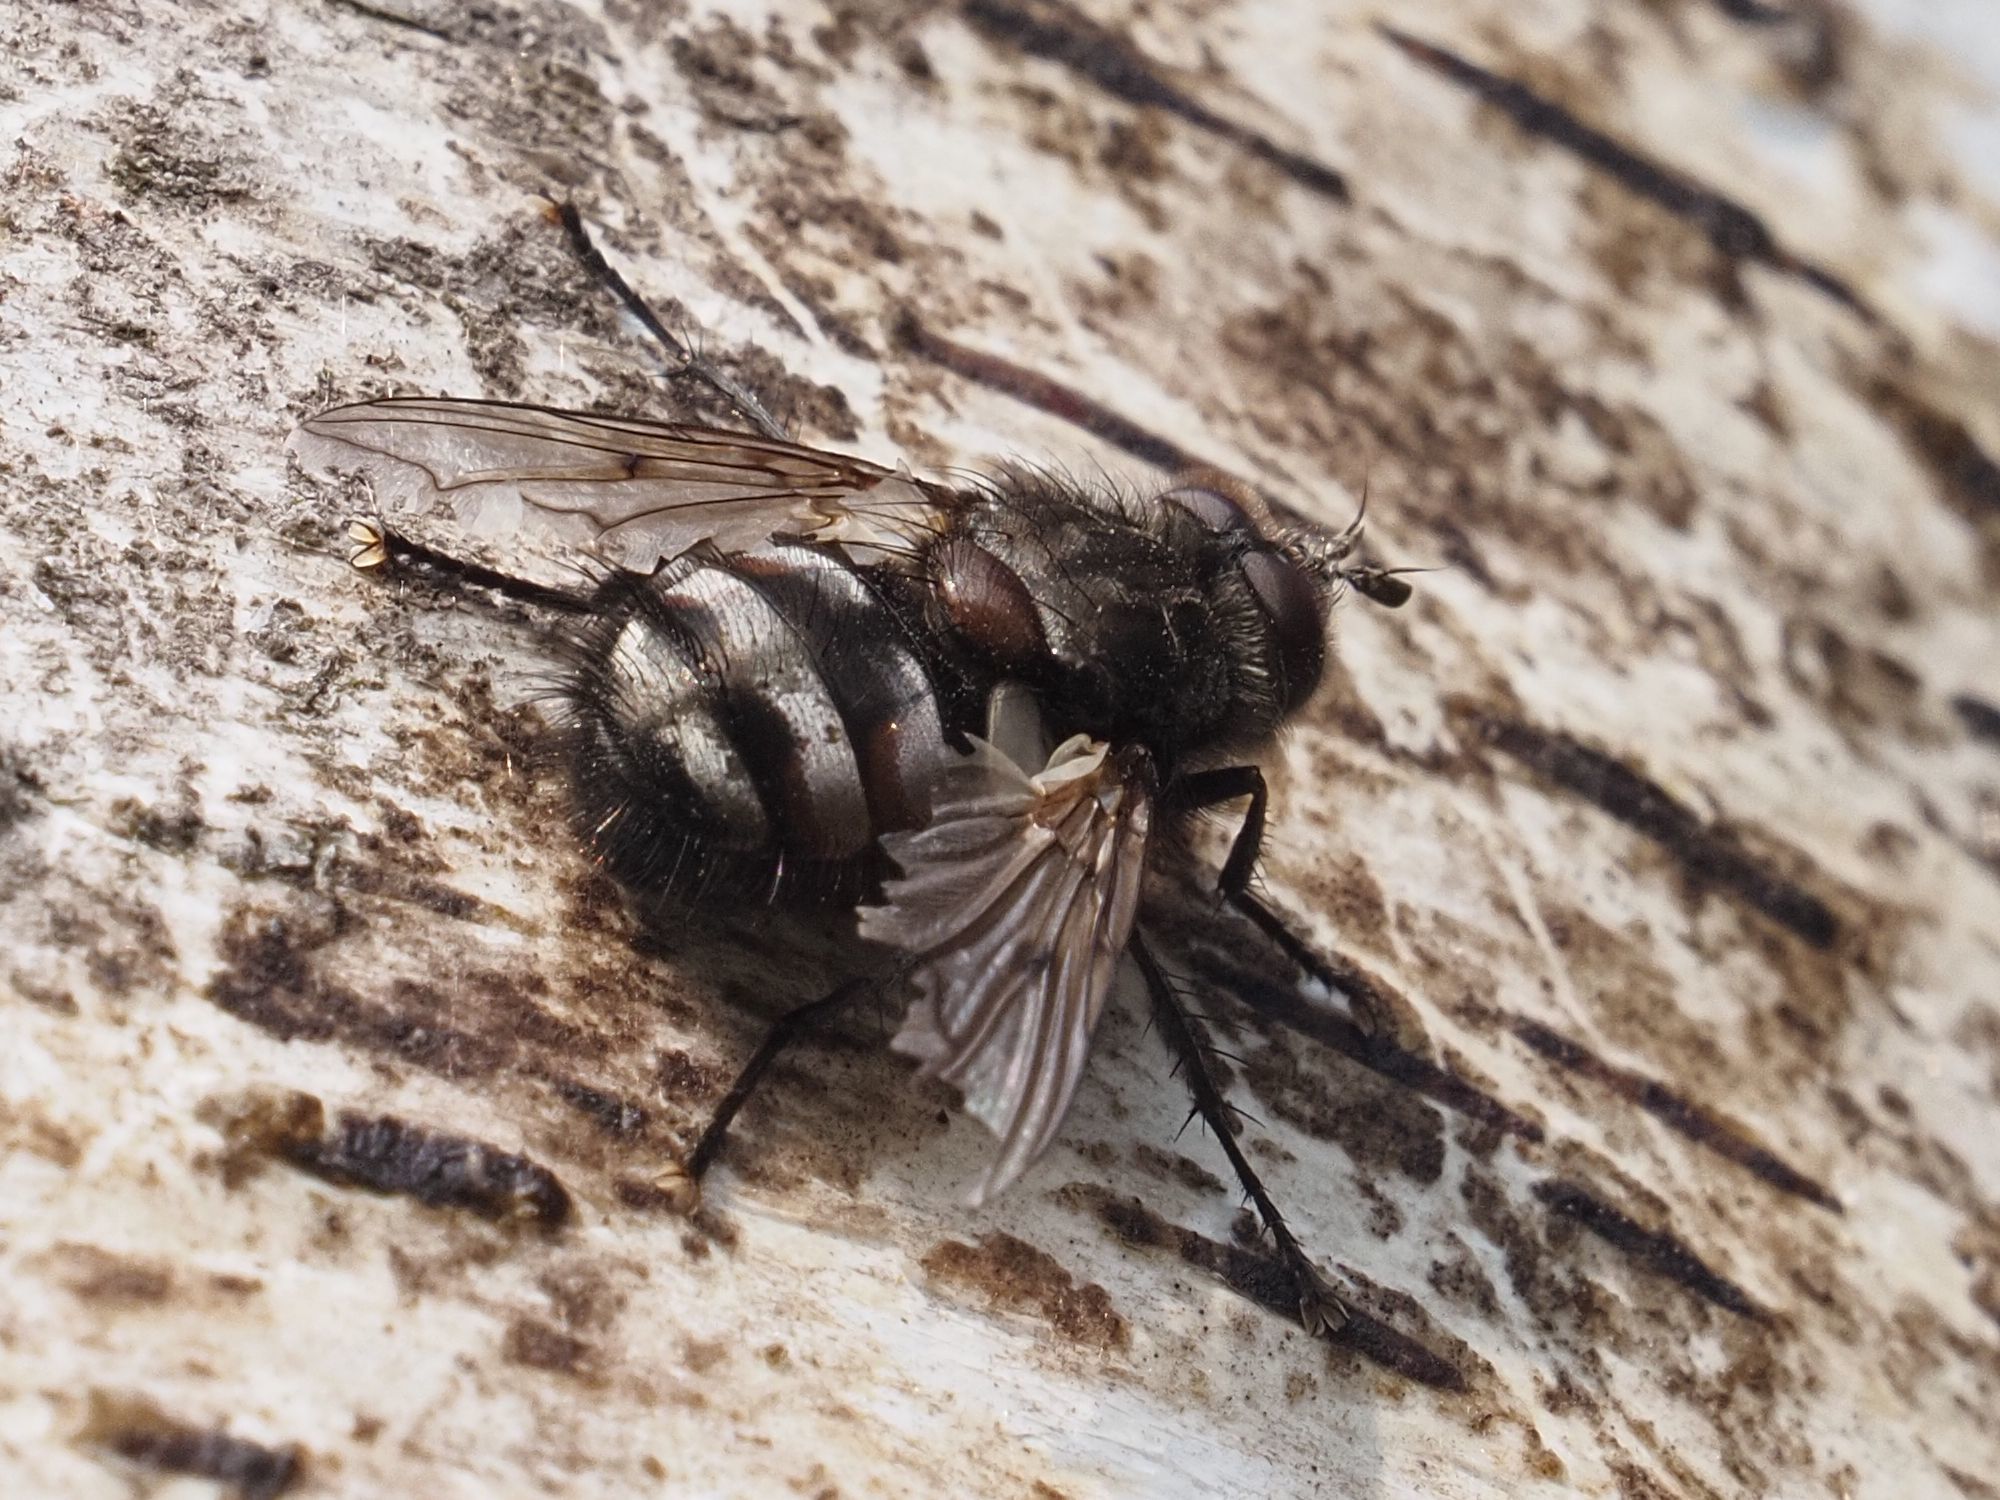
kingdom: Animalia
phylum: Arthropoda
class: Insecta
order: Diptera
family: Tachinidae
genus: Panzeria
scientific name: Panzeria puparum
